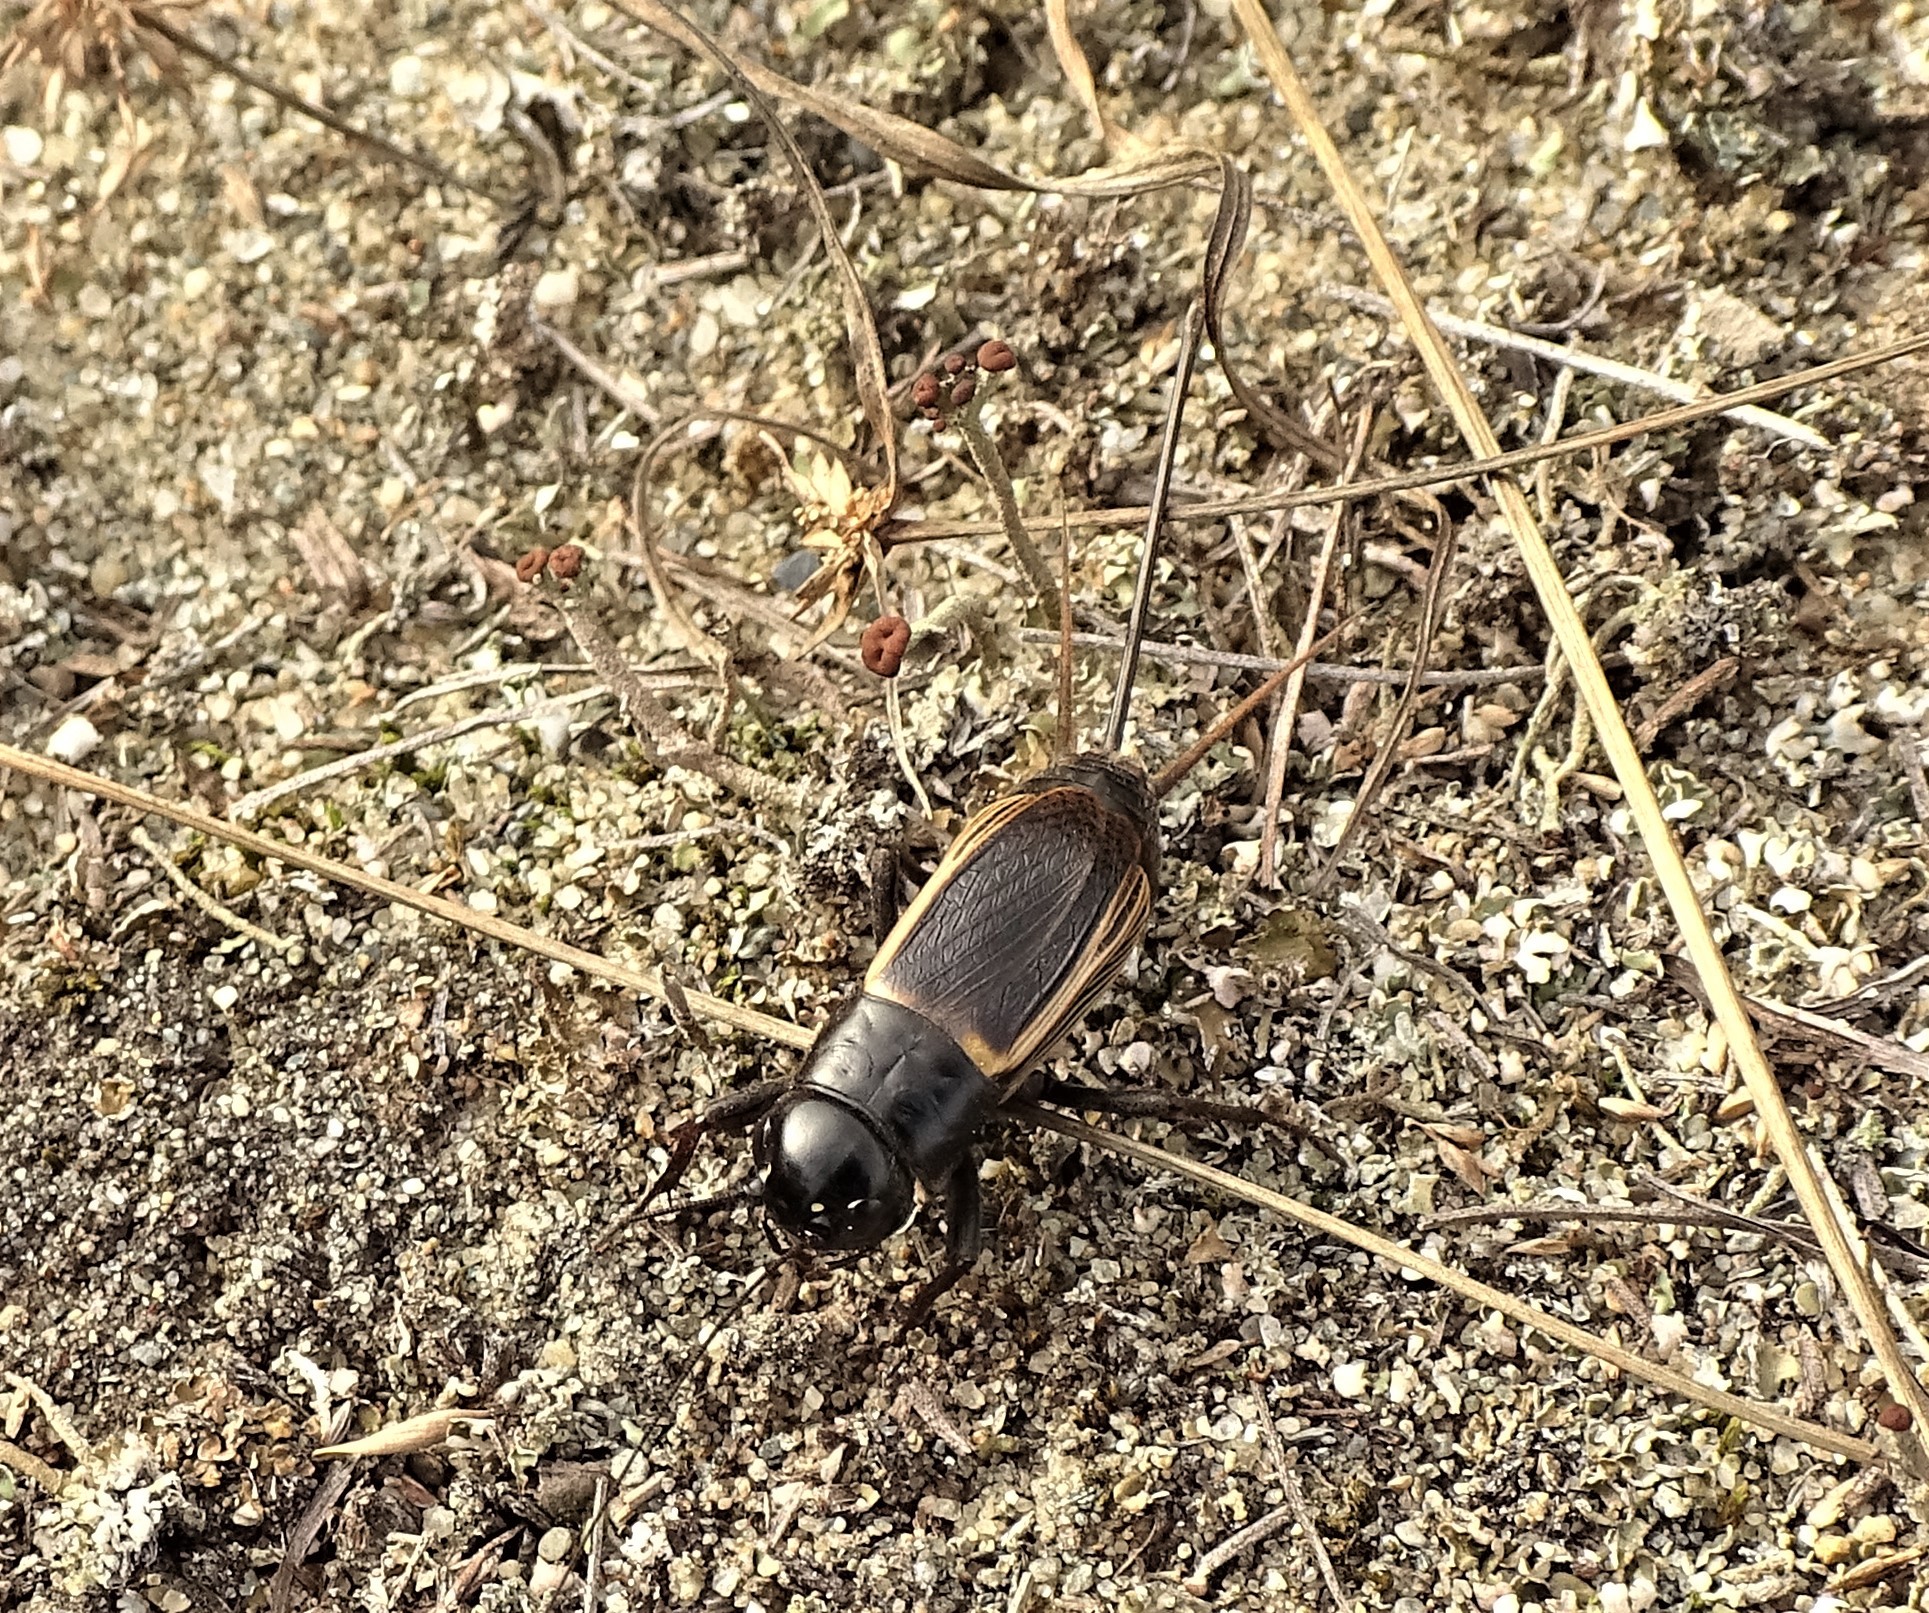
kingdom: Animalia
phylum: Arthropoda
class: Insecta
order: Orthoptera
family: Gryllidae
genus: Gryllus
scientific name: Gryllus pennsylvanicus
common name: Fall field cricket
